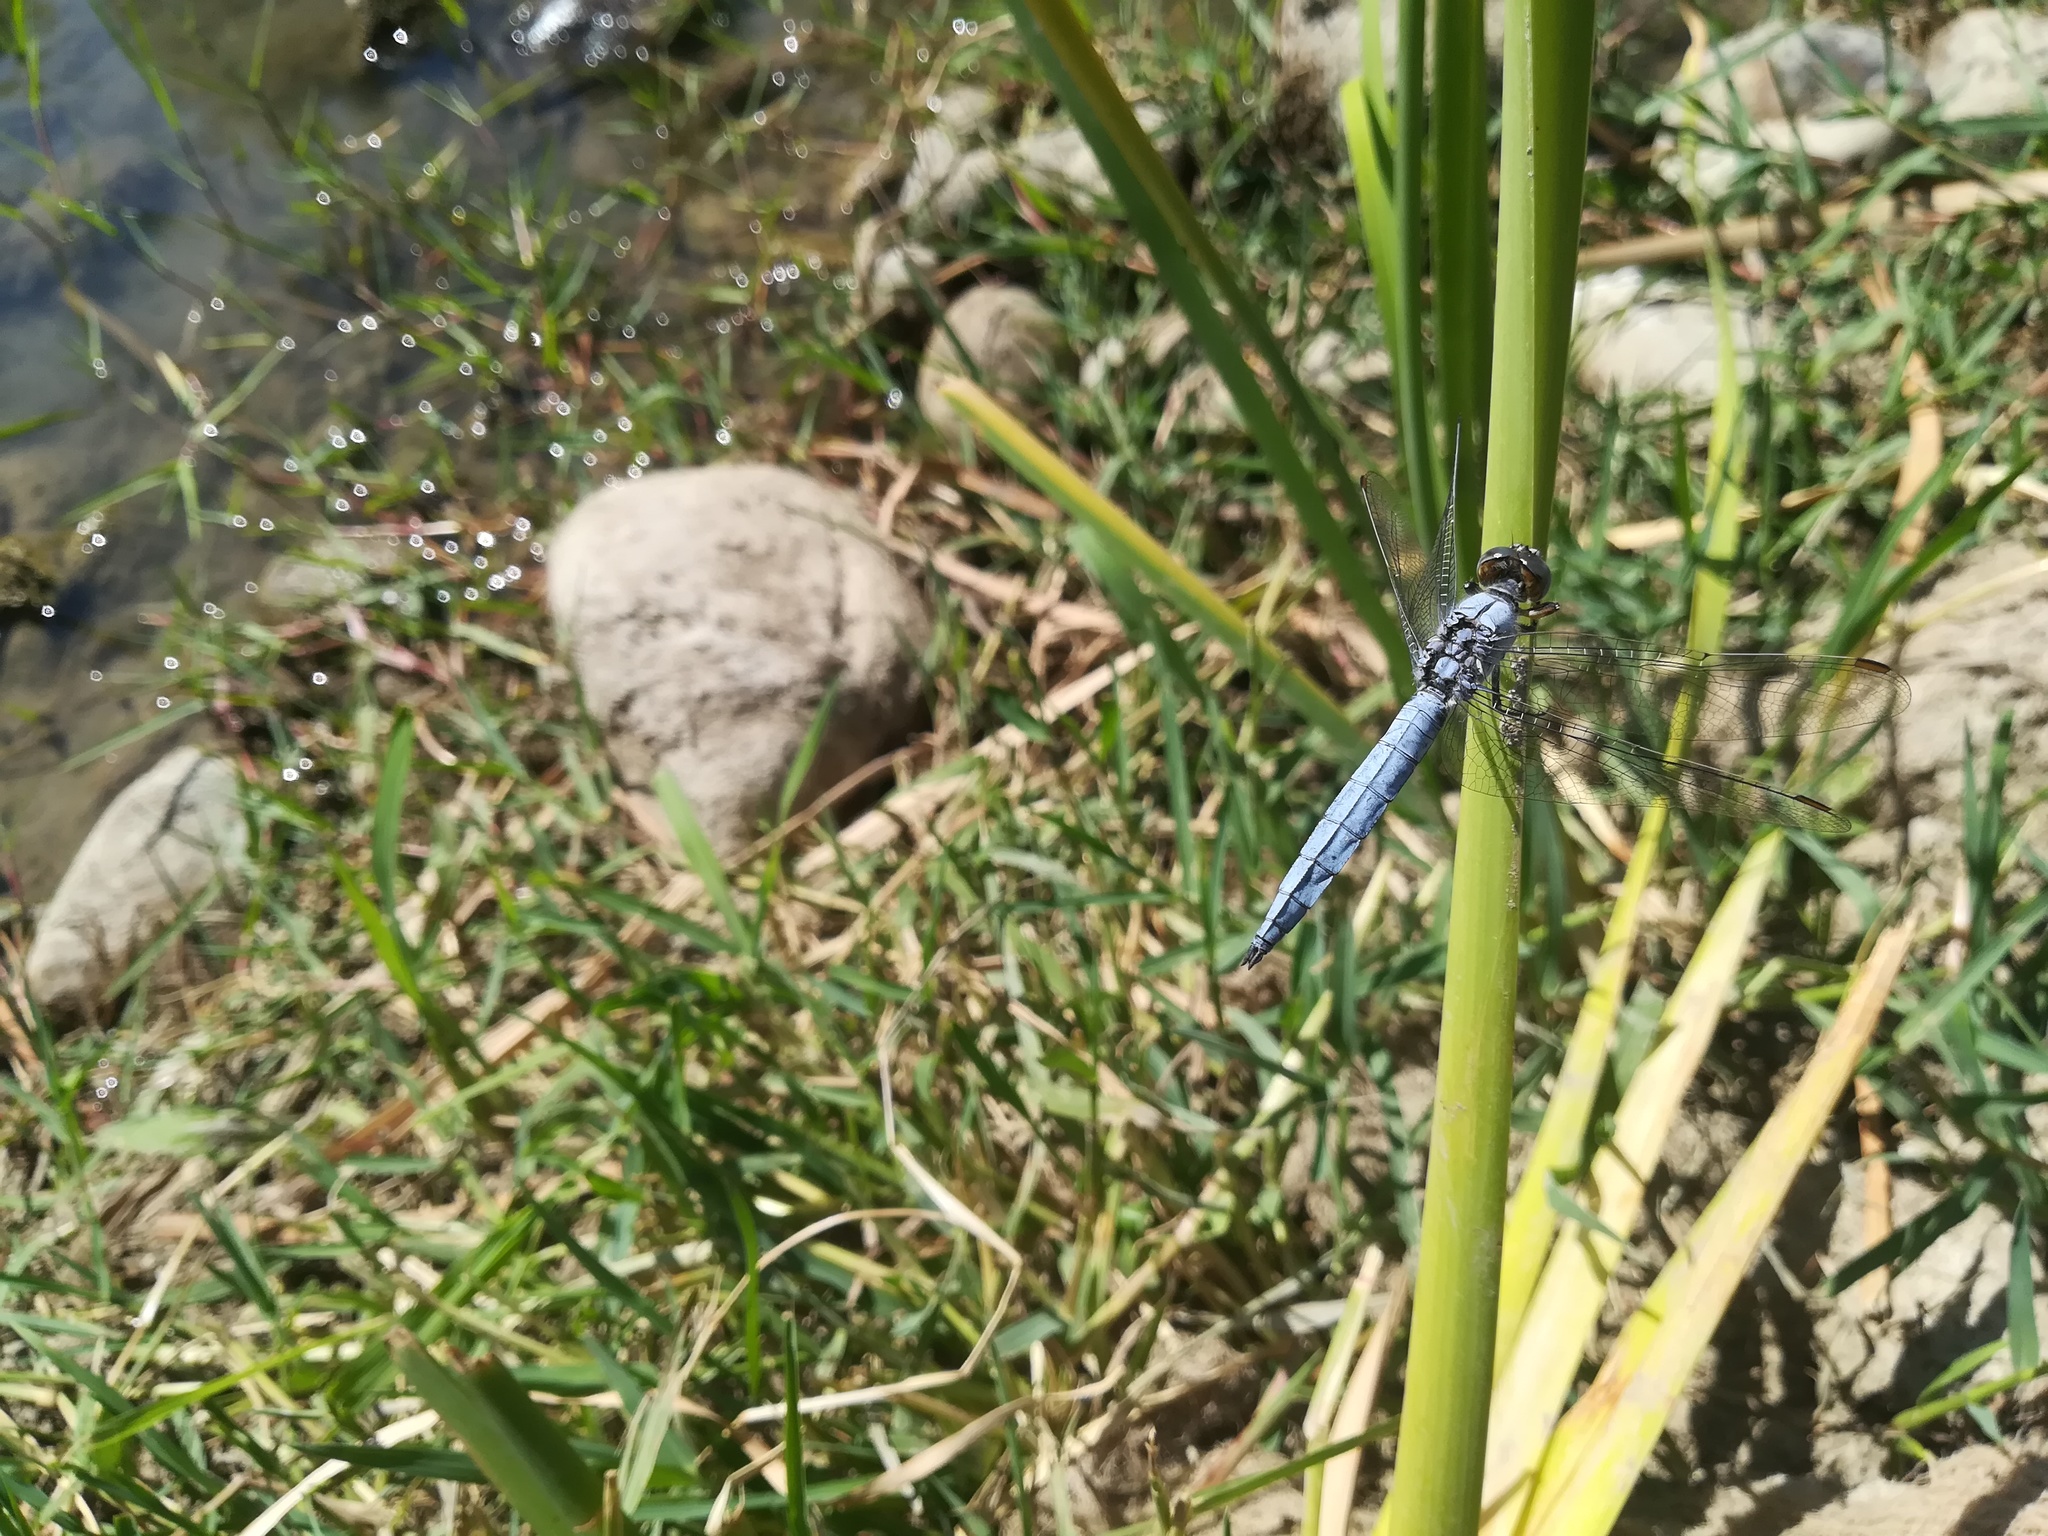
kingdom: Animalia
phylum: Arthropoda
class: Insecta
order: Odonata
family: Libellulidae
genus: Orthetrum
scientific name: Orthetrum brunneum
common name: Southern skimmer
